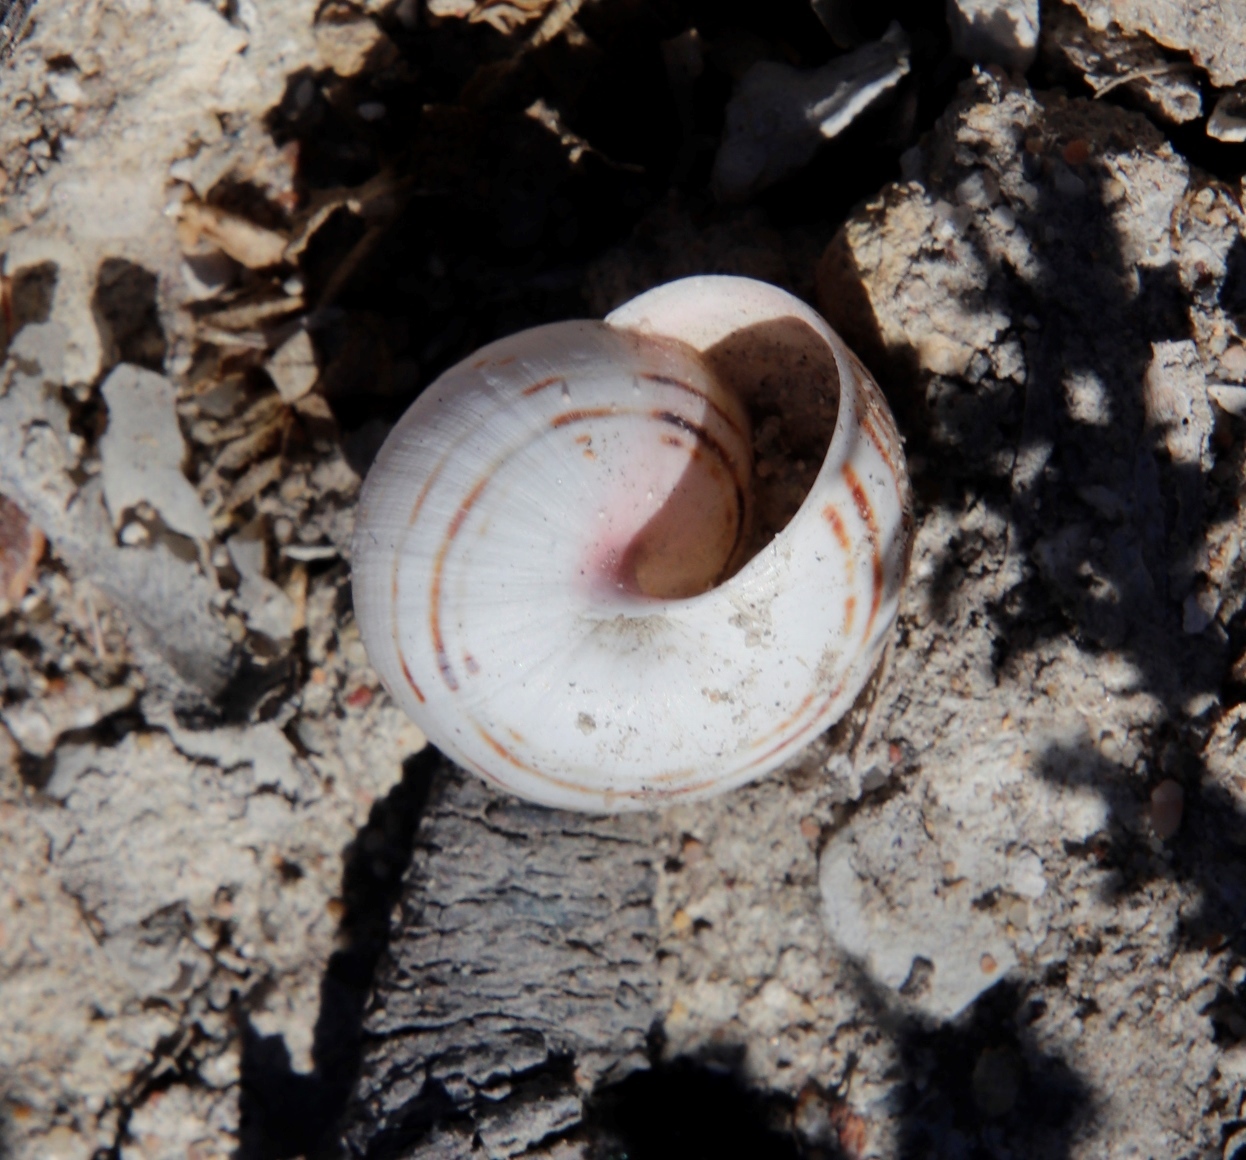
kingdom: Animalia
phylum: Mollusca
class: Gastropoda
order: Stylommatophora
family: Helicidae
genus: Theba
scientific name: Theba pisana
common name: White snail
